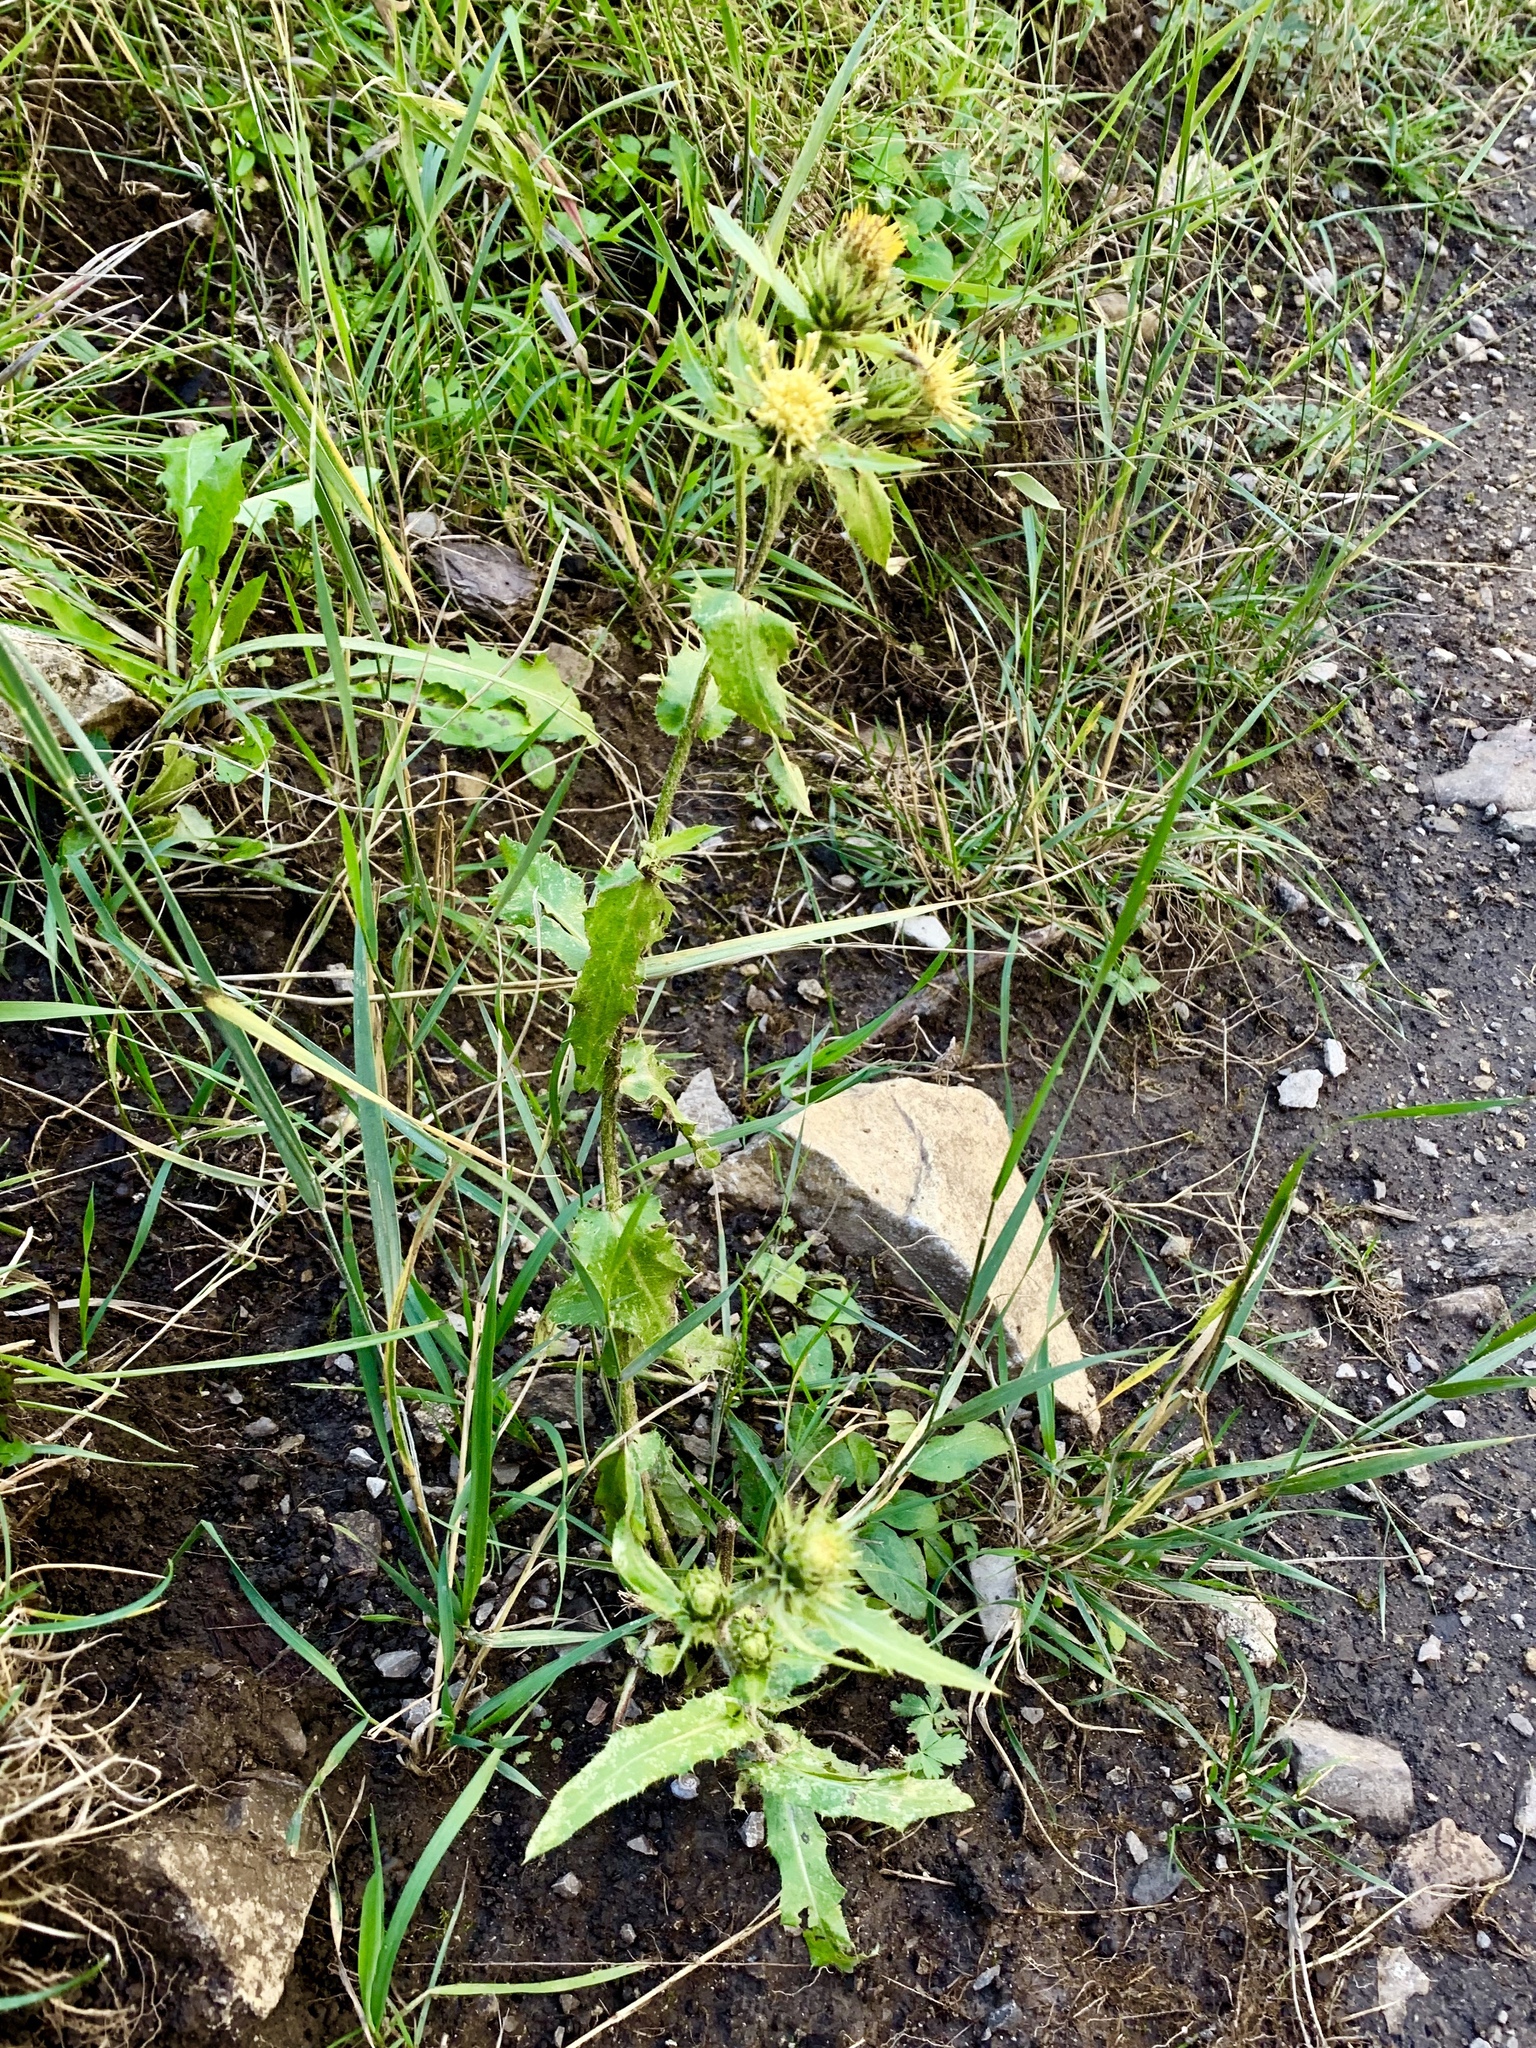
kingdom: Plantae
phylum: Tracheophyta
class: Magnoliopsida
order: Asterales
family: Asteraceae
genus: Cirsium
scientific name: Cirsium parryi
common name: Parry's thistle
